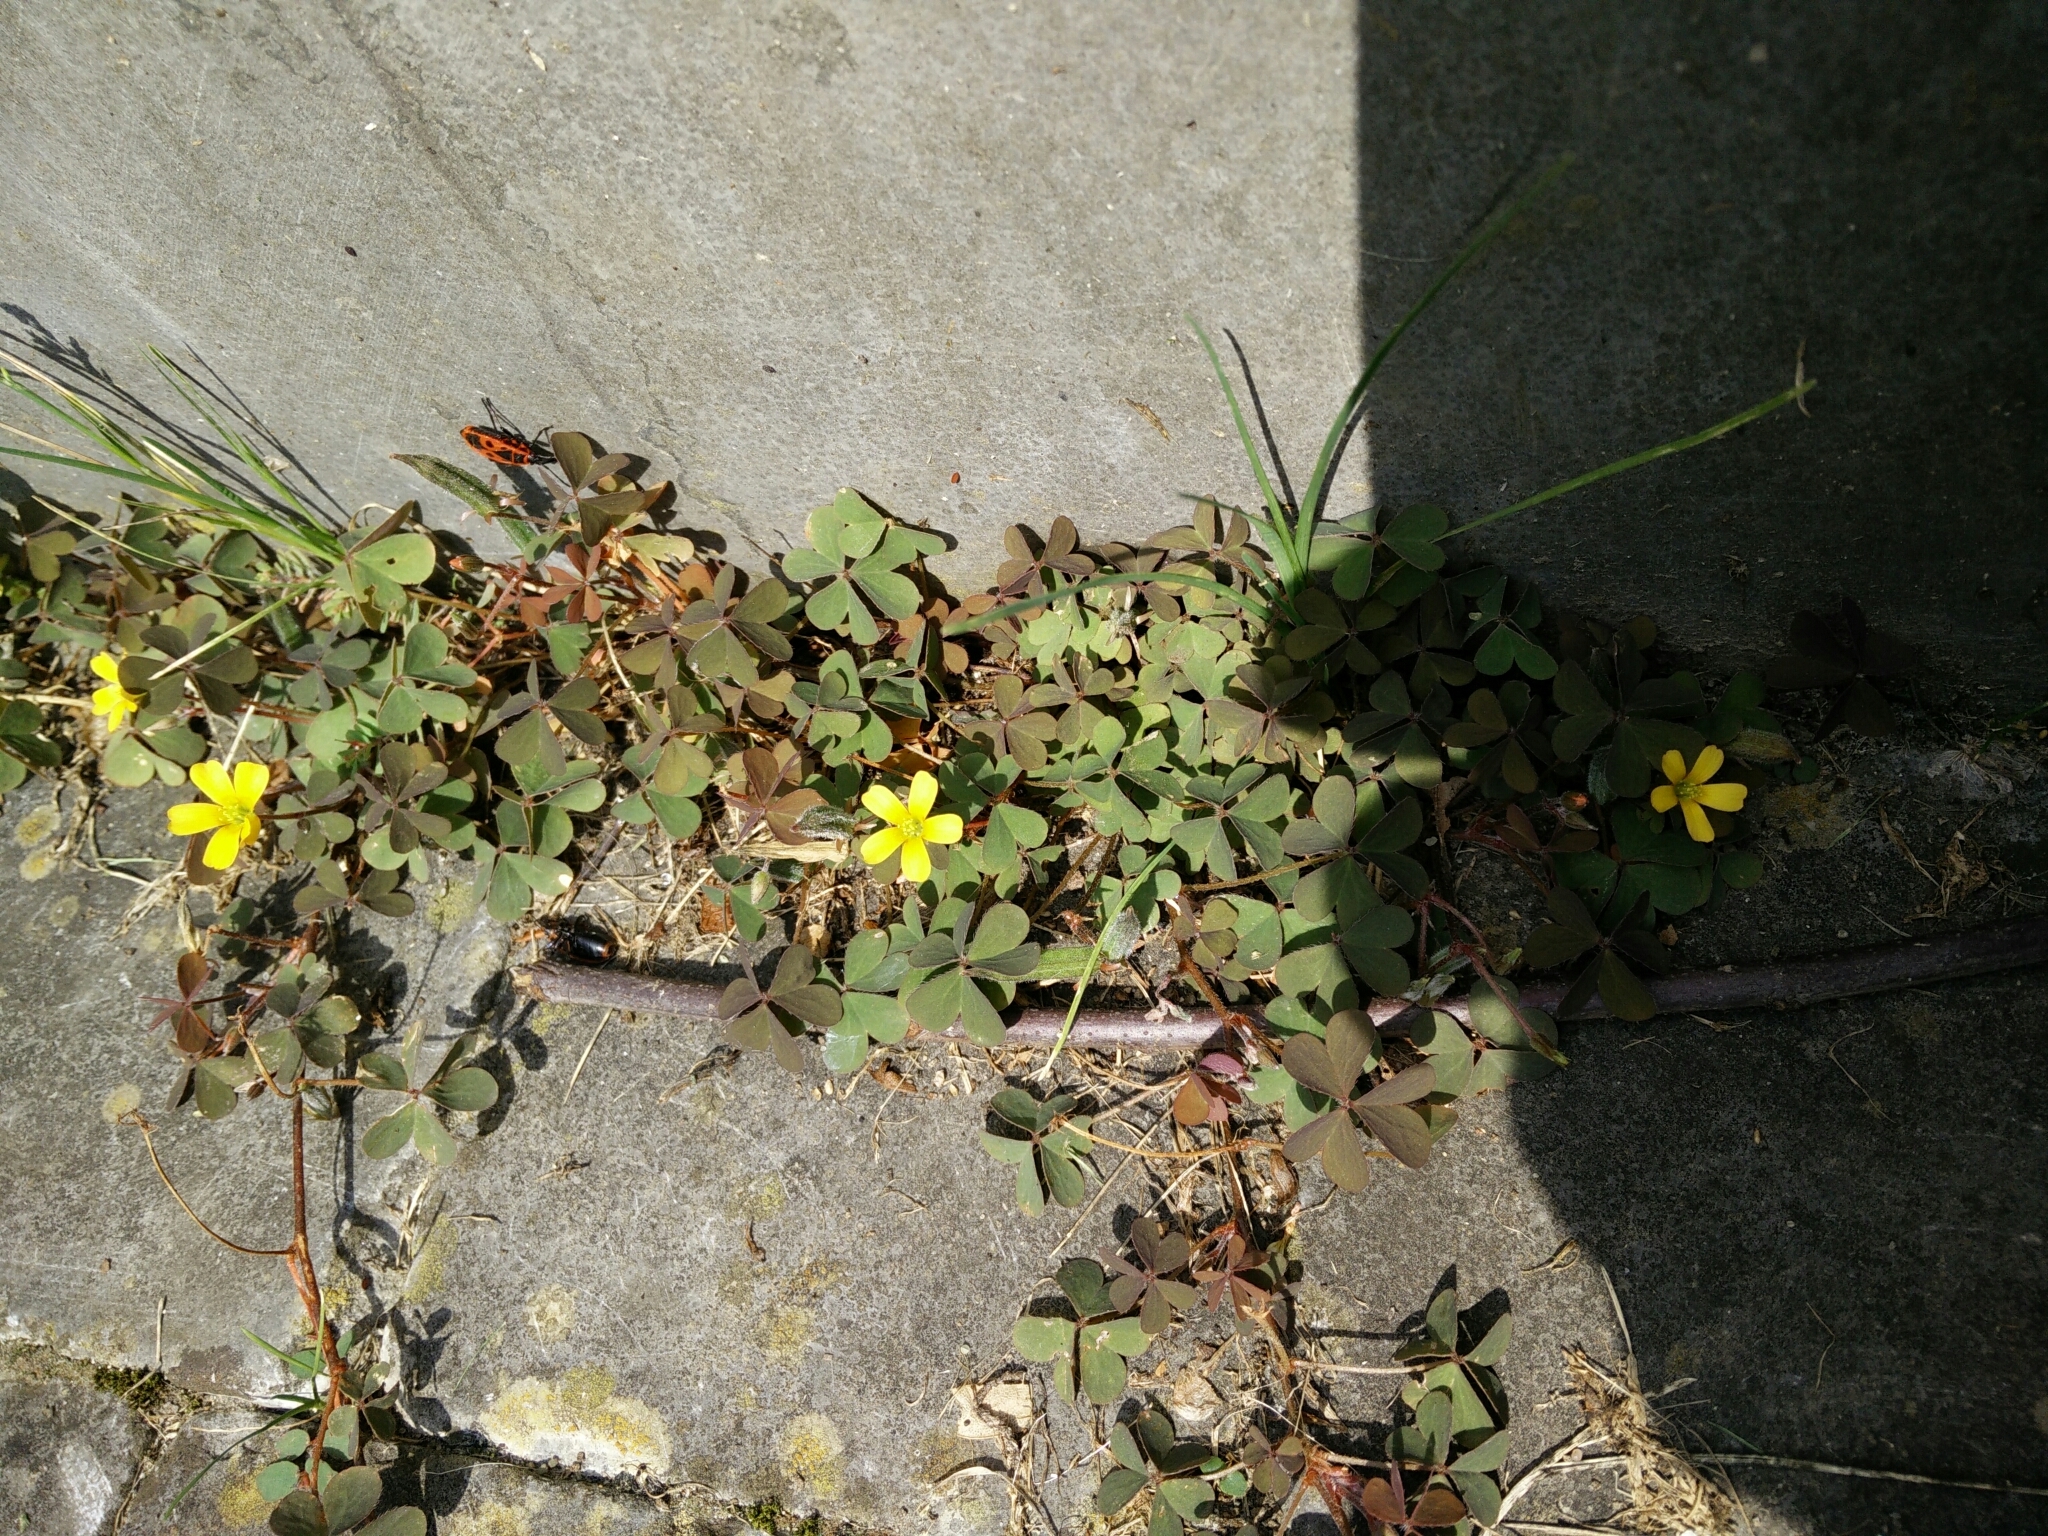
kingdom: Plantae
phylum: Tracheophyta
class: Magnoliopsida
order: Oxalidales
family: Oxalidaceae
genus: Oxalis
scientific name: Oxalis corniculata
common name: Procumbent yellow-sorrel
